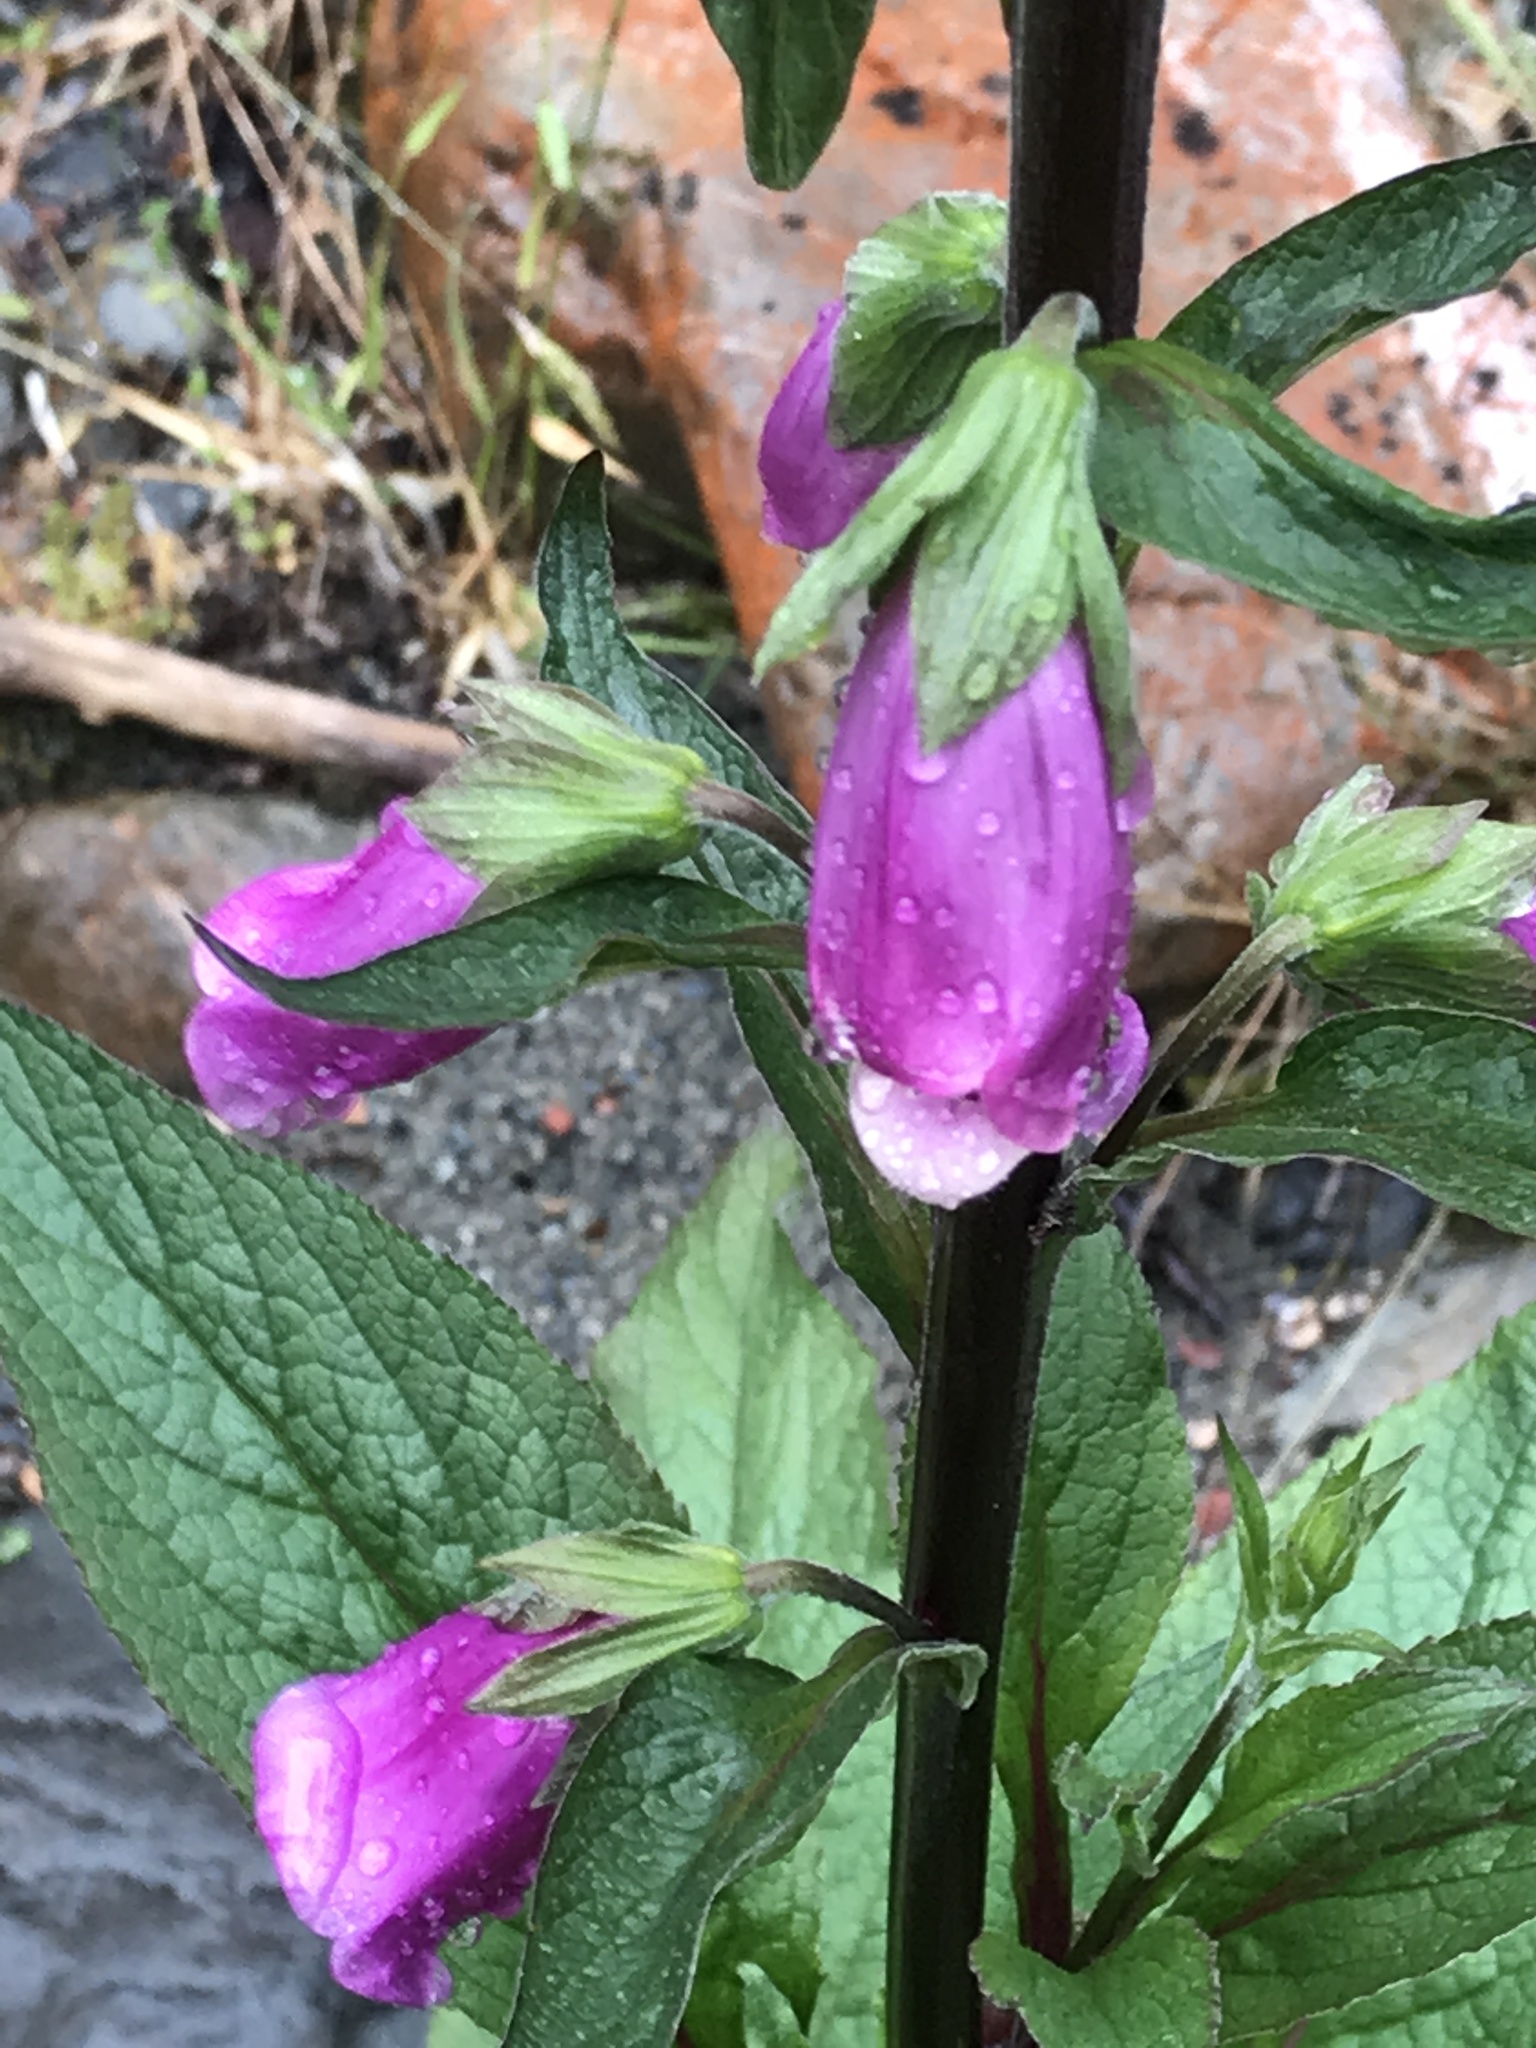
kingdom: Plantae
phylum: Tracheophyta
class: Magnoliopsida
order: Lamiales
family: Plantaginaceae
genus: Digitalis
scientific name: Digitalis purpurea
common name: Foxglove
